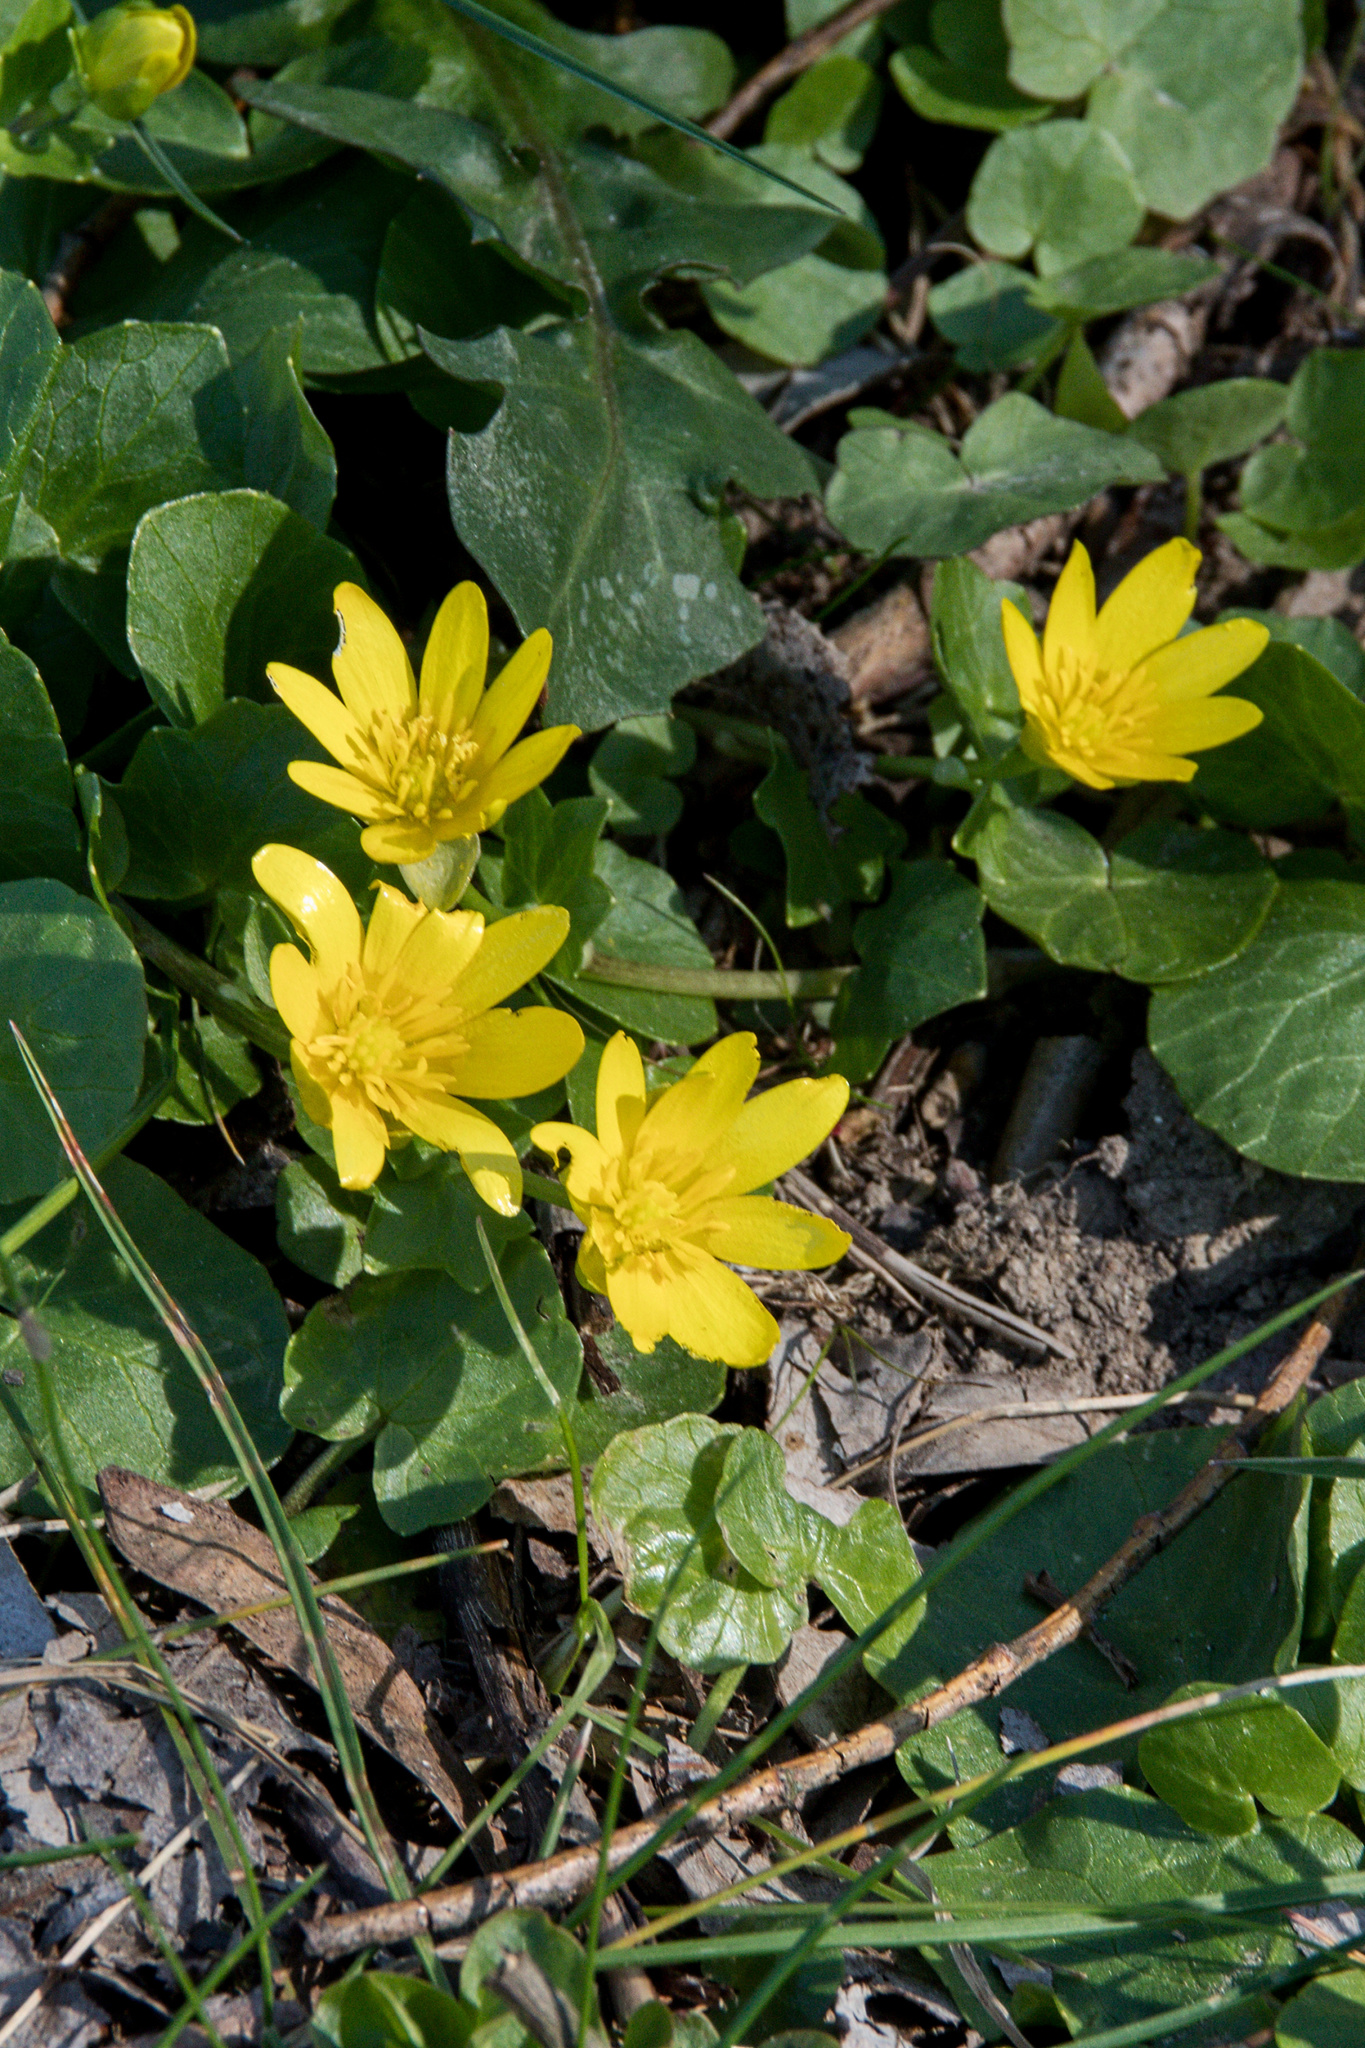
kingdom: Plantae
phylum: Tracheophyta
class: Magnoliopsida
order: Ranunculales
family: Ranunculaceae
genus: Ficaria
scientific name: Ficaria verna
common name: Lesser celandine
